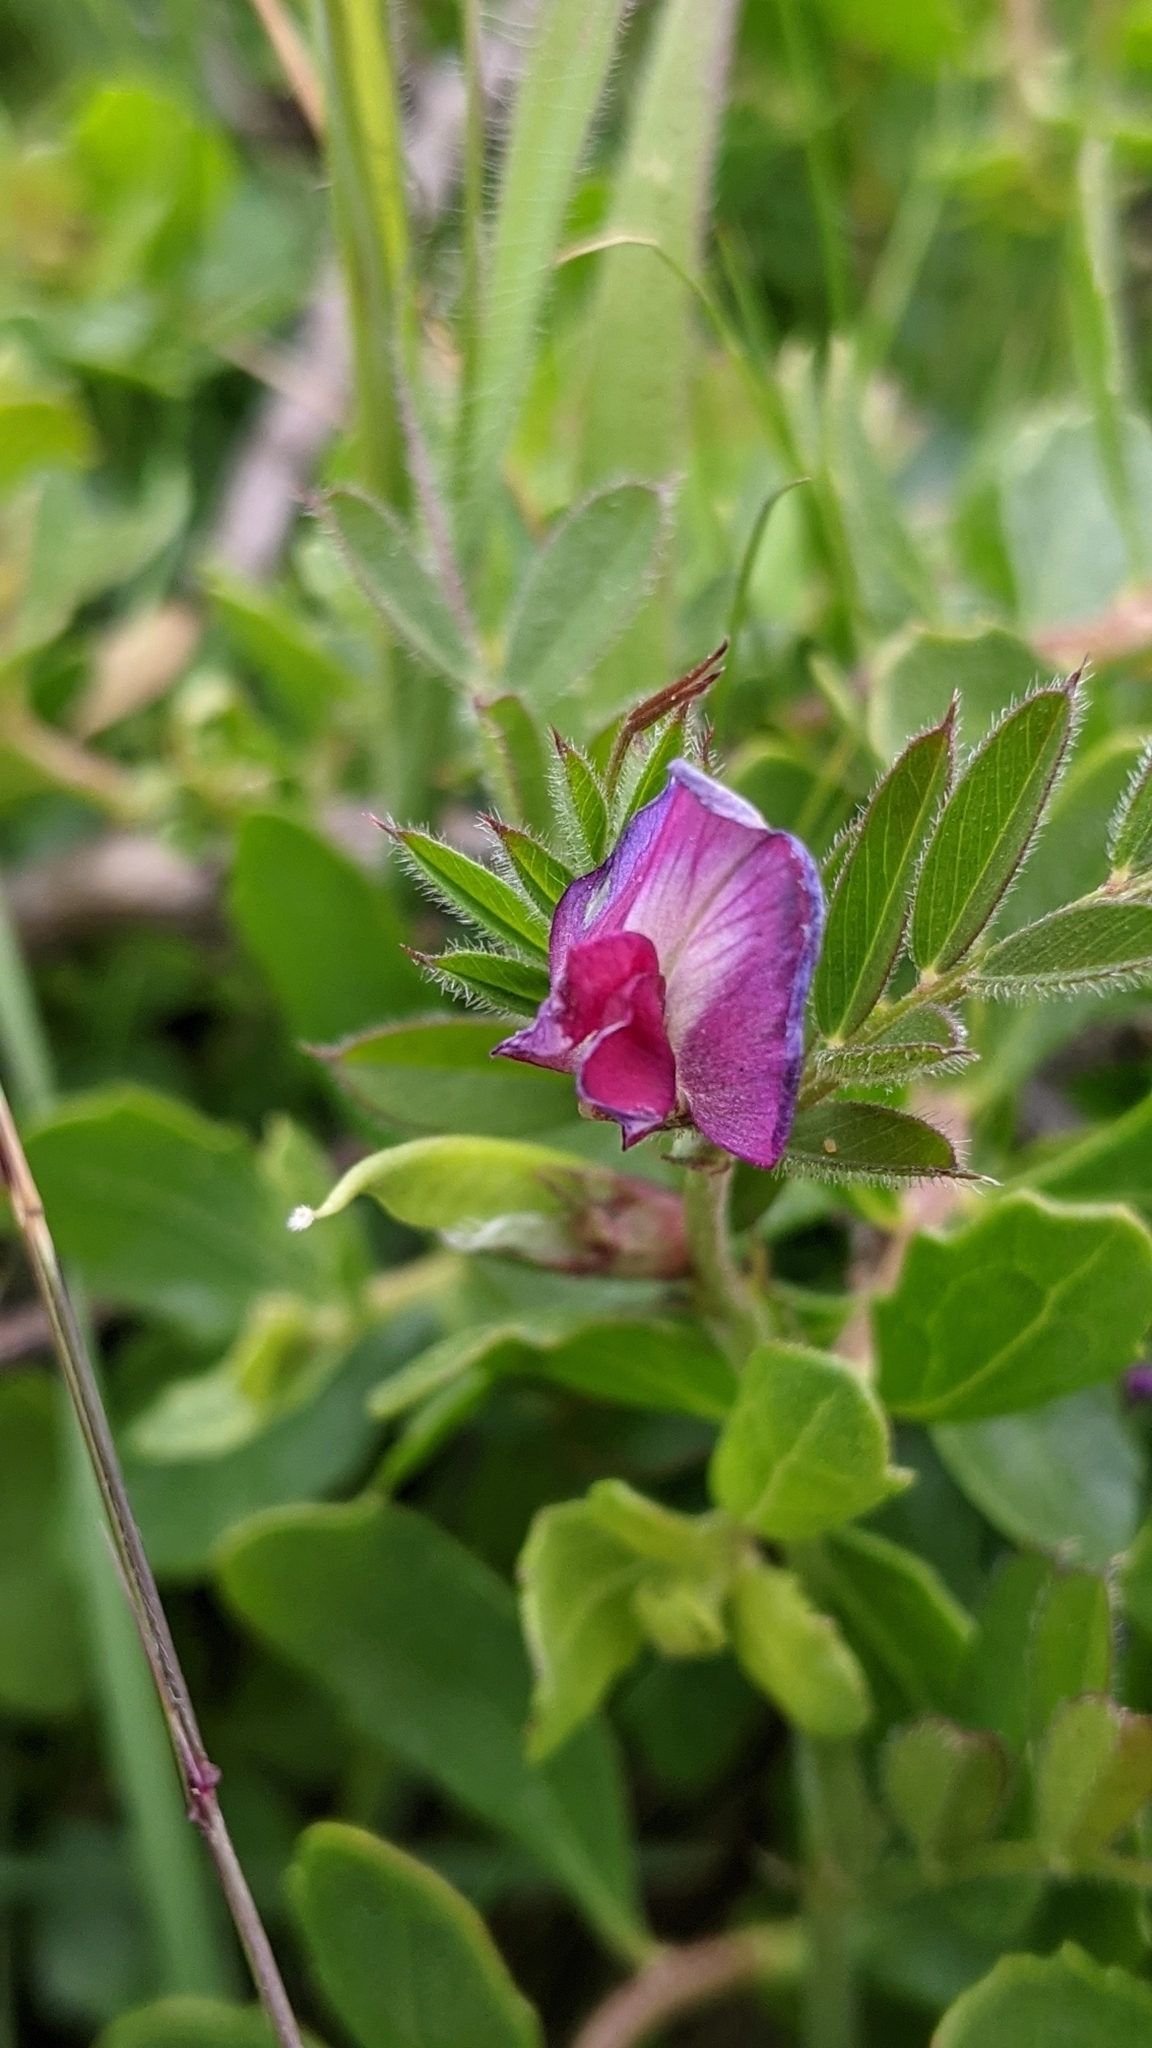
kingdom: Plantae
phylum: Tracheophyta
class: Magnoliopsida
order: Fabales
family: Fabaceae
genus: Vicia
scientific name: Vicia sativa
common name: Garden vetch
